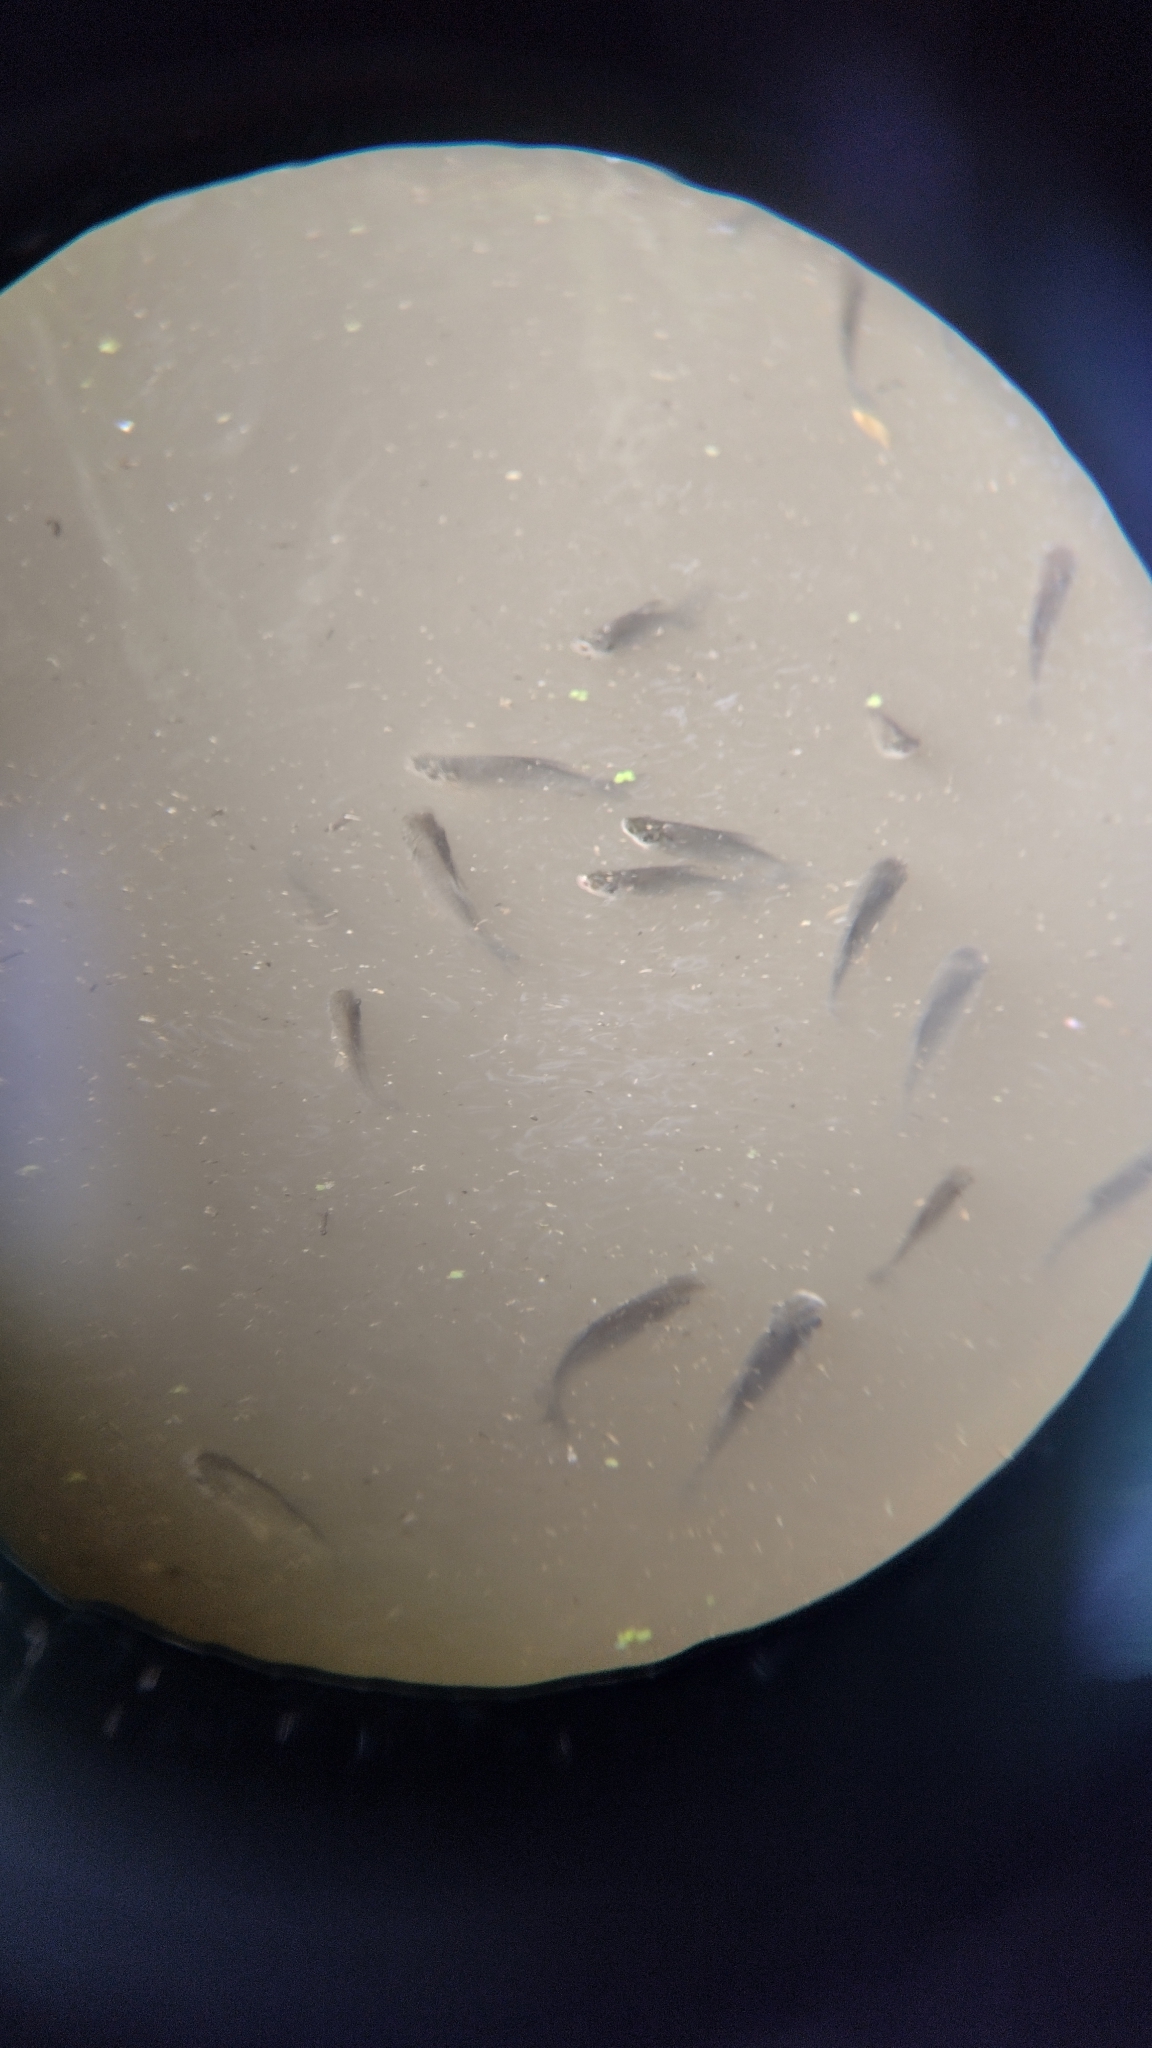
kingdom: Animalia
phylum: Chordata
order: Characiformes
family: Prochilodontidae
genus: Prochilodus
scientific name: Prochilodus lineatus
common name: Curimbata
